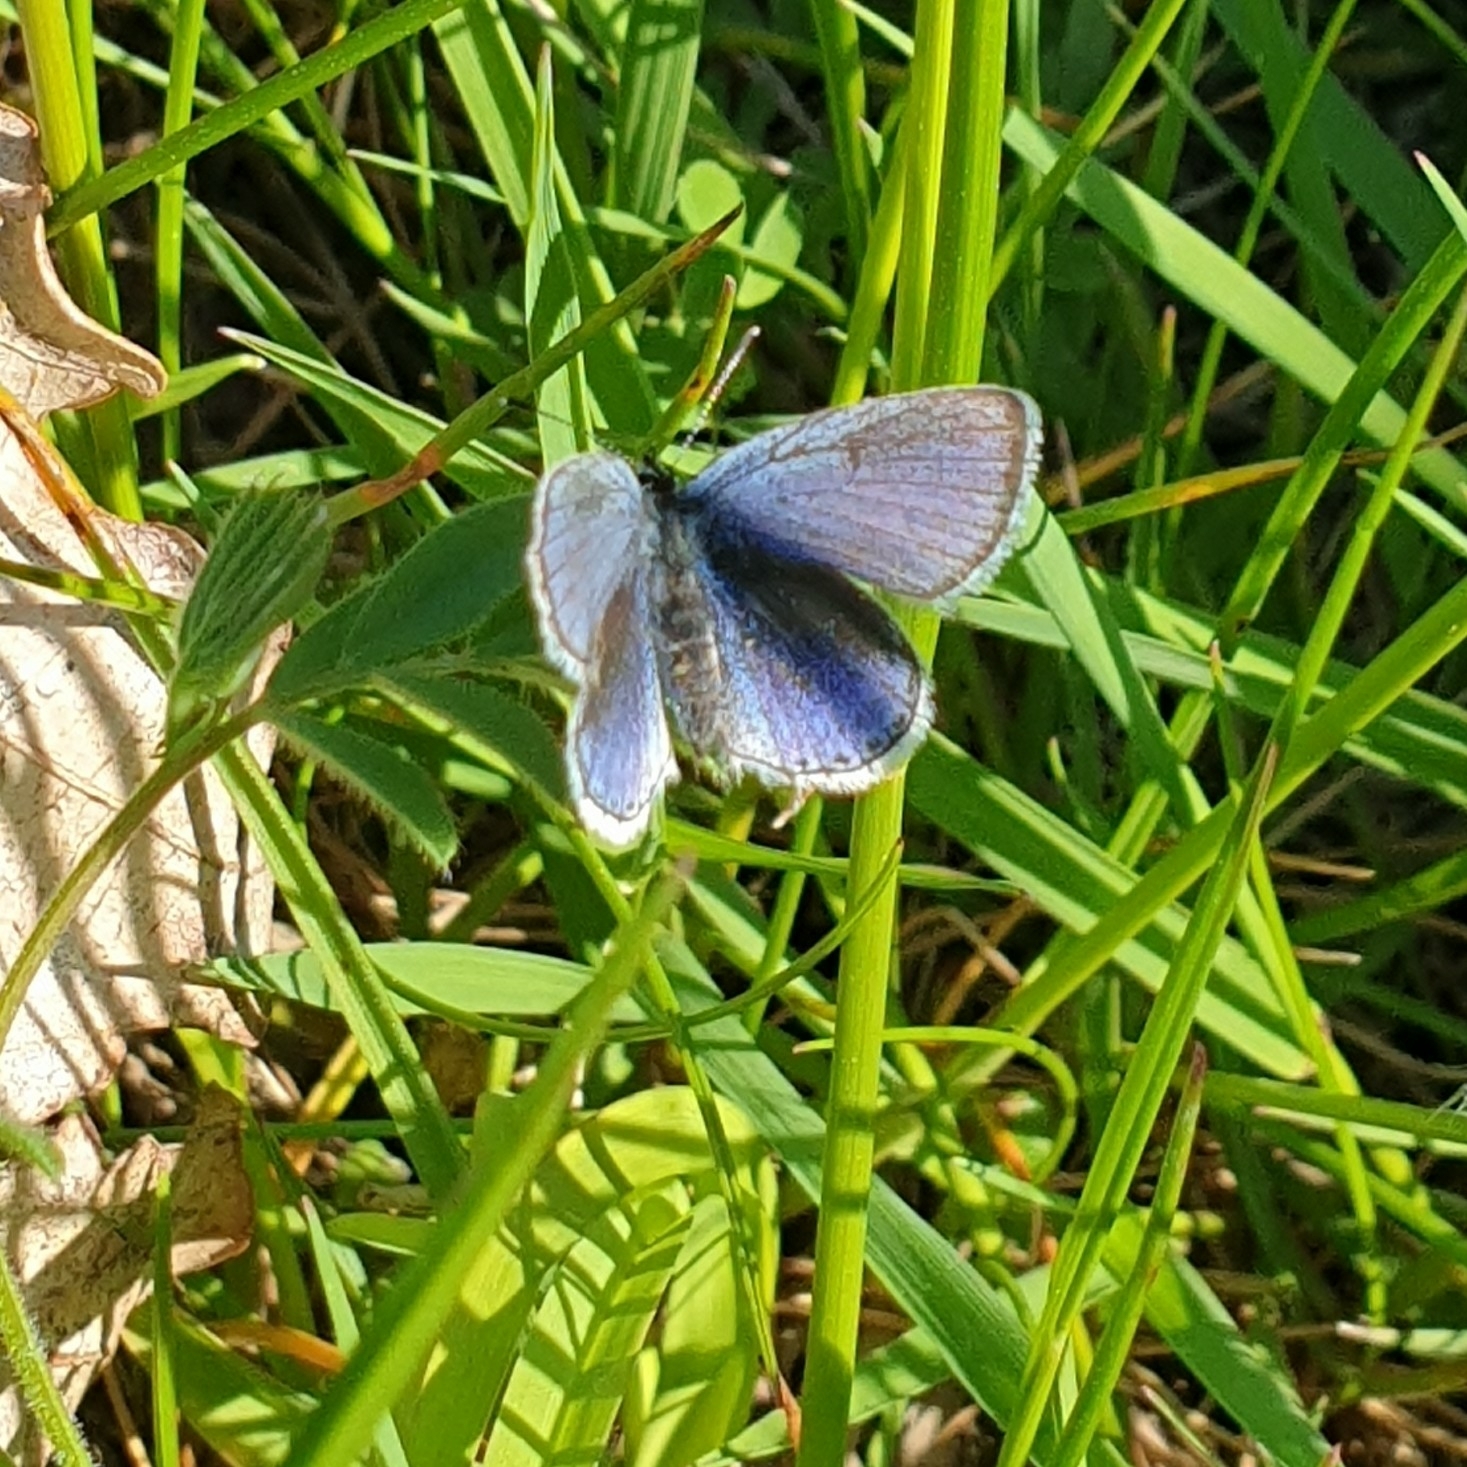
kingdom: Animalia
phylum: Arthropoda
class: Insecta
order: Lepidoptera
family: Lycaenidae
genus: Elkalyce
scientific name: Elkalyce argiades
